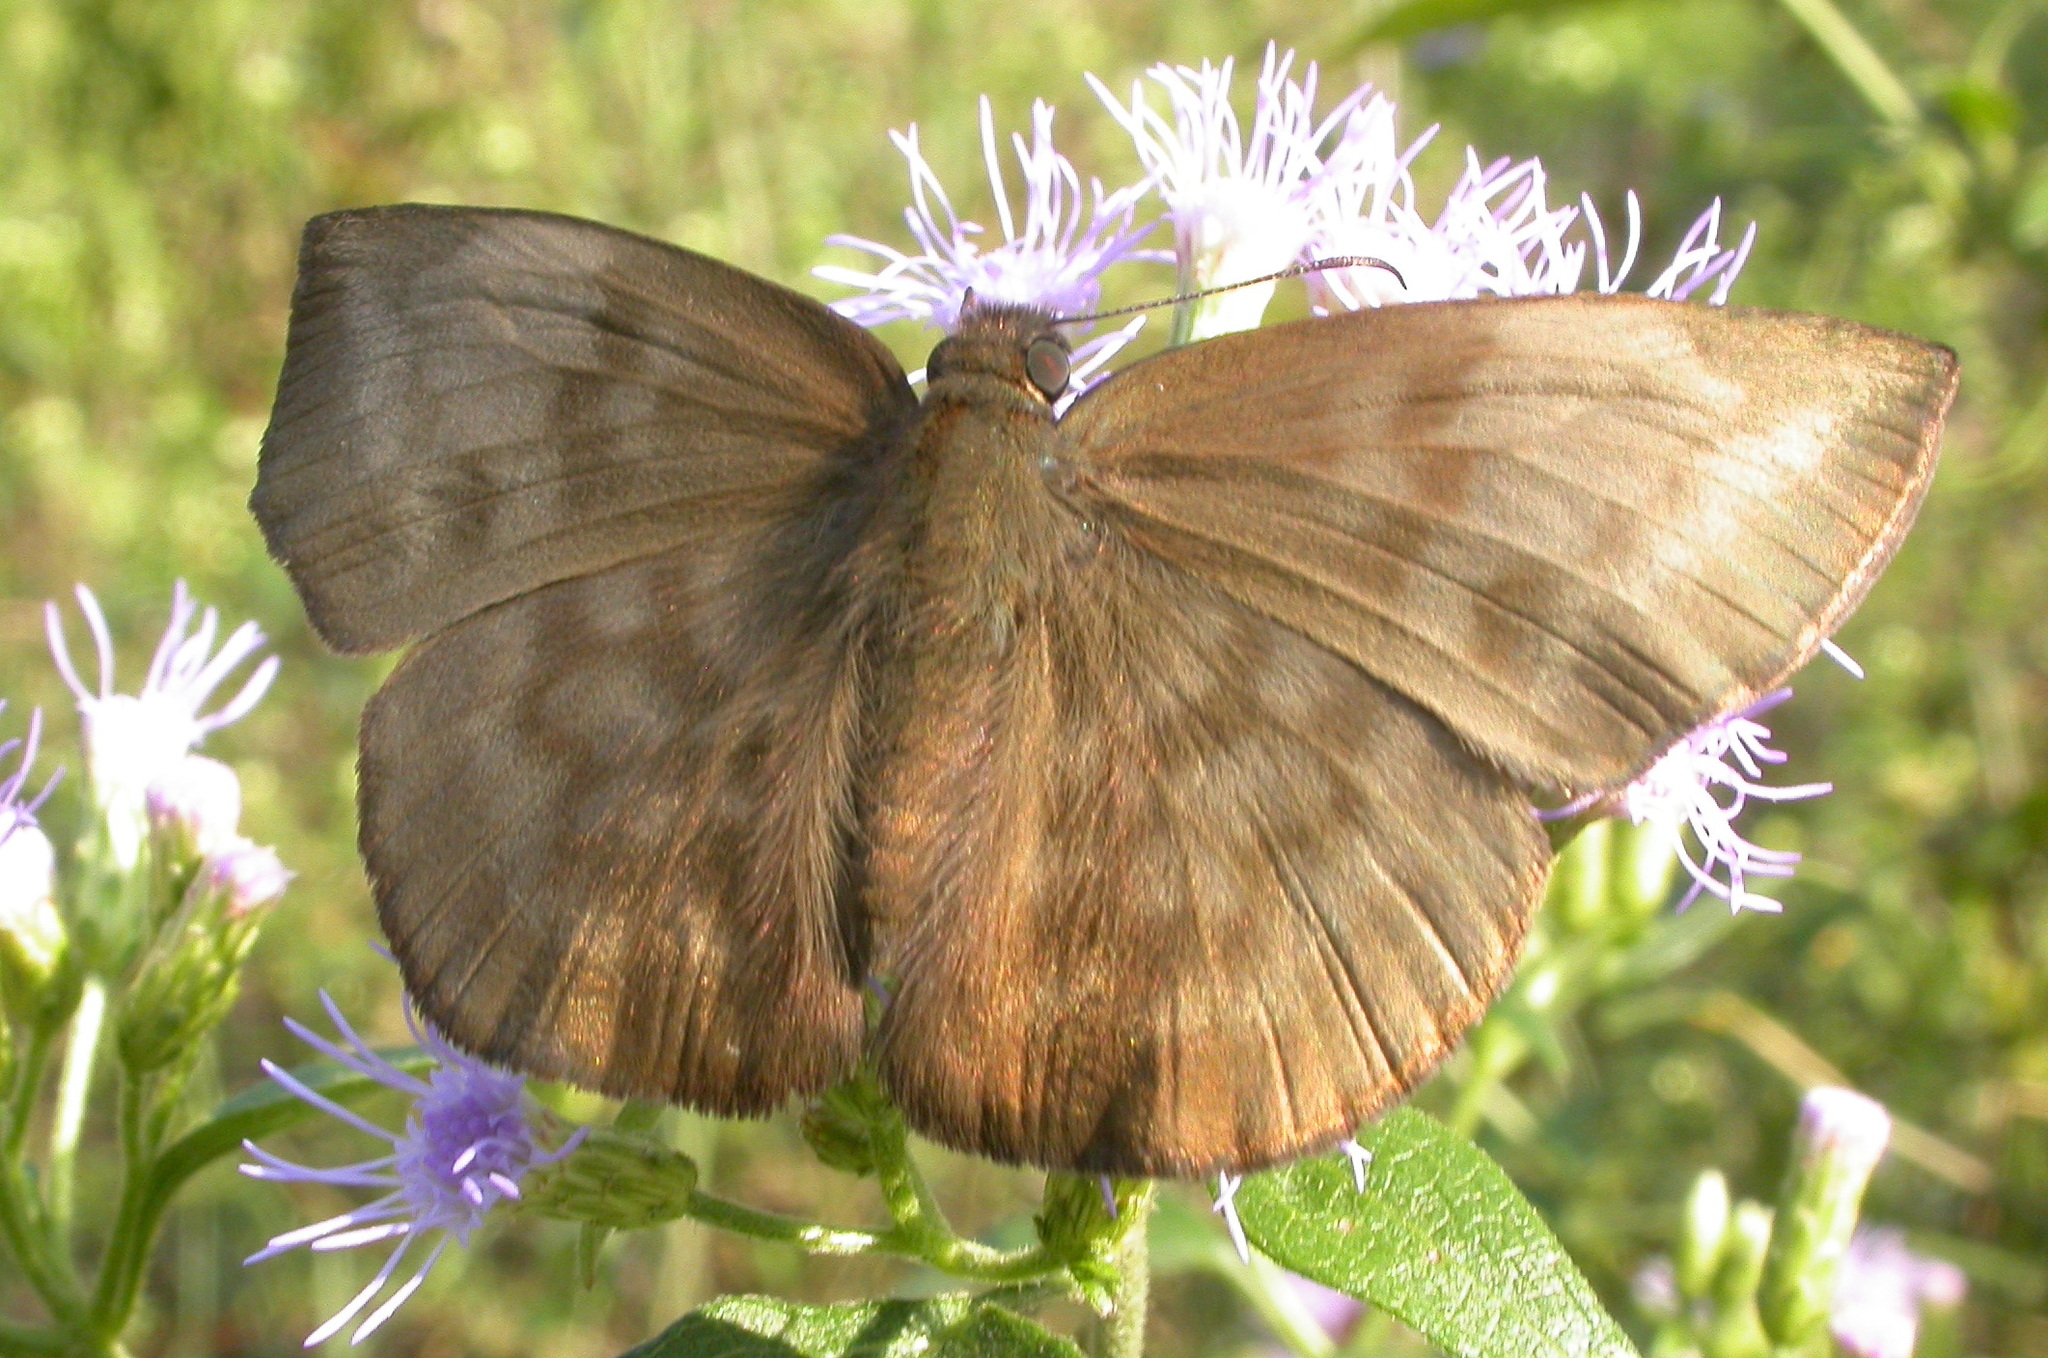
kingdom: Animalia
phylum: Arthropoda
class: Insecta
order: Lepidoptera
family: Hesperiidae
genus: Achlyodes
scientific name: Achlyodes pallida
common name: Pale sicklewing
